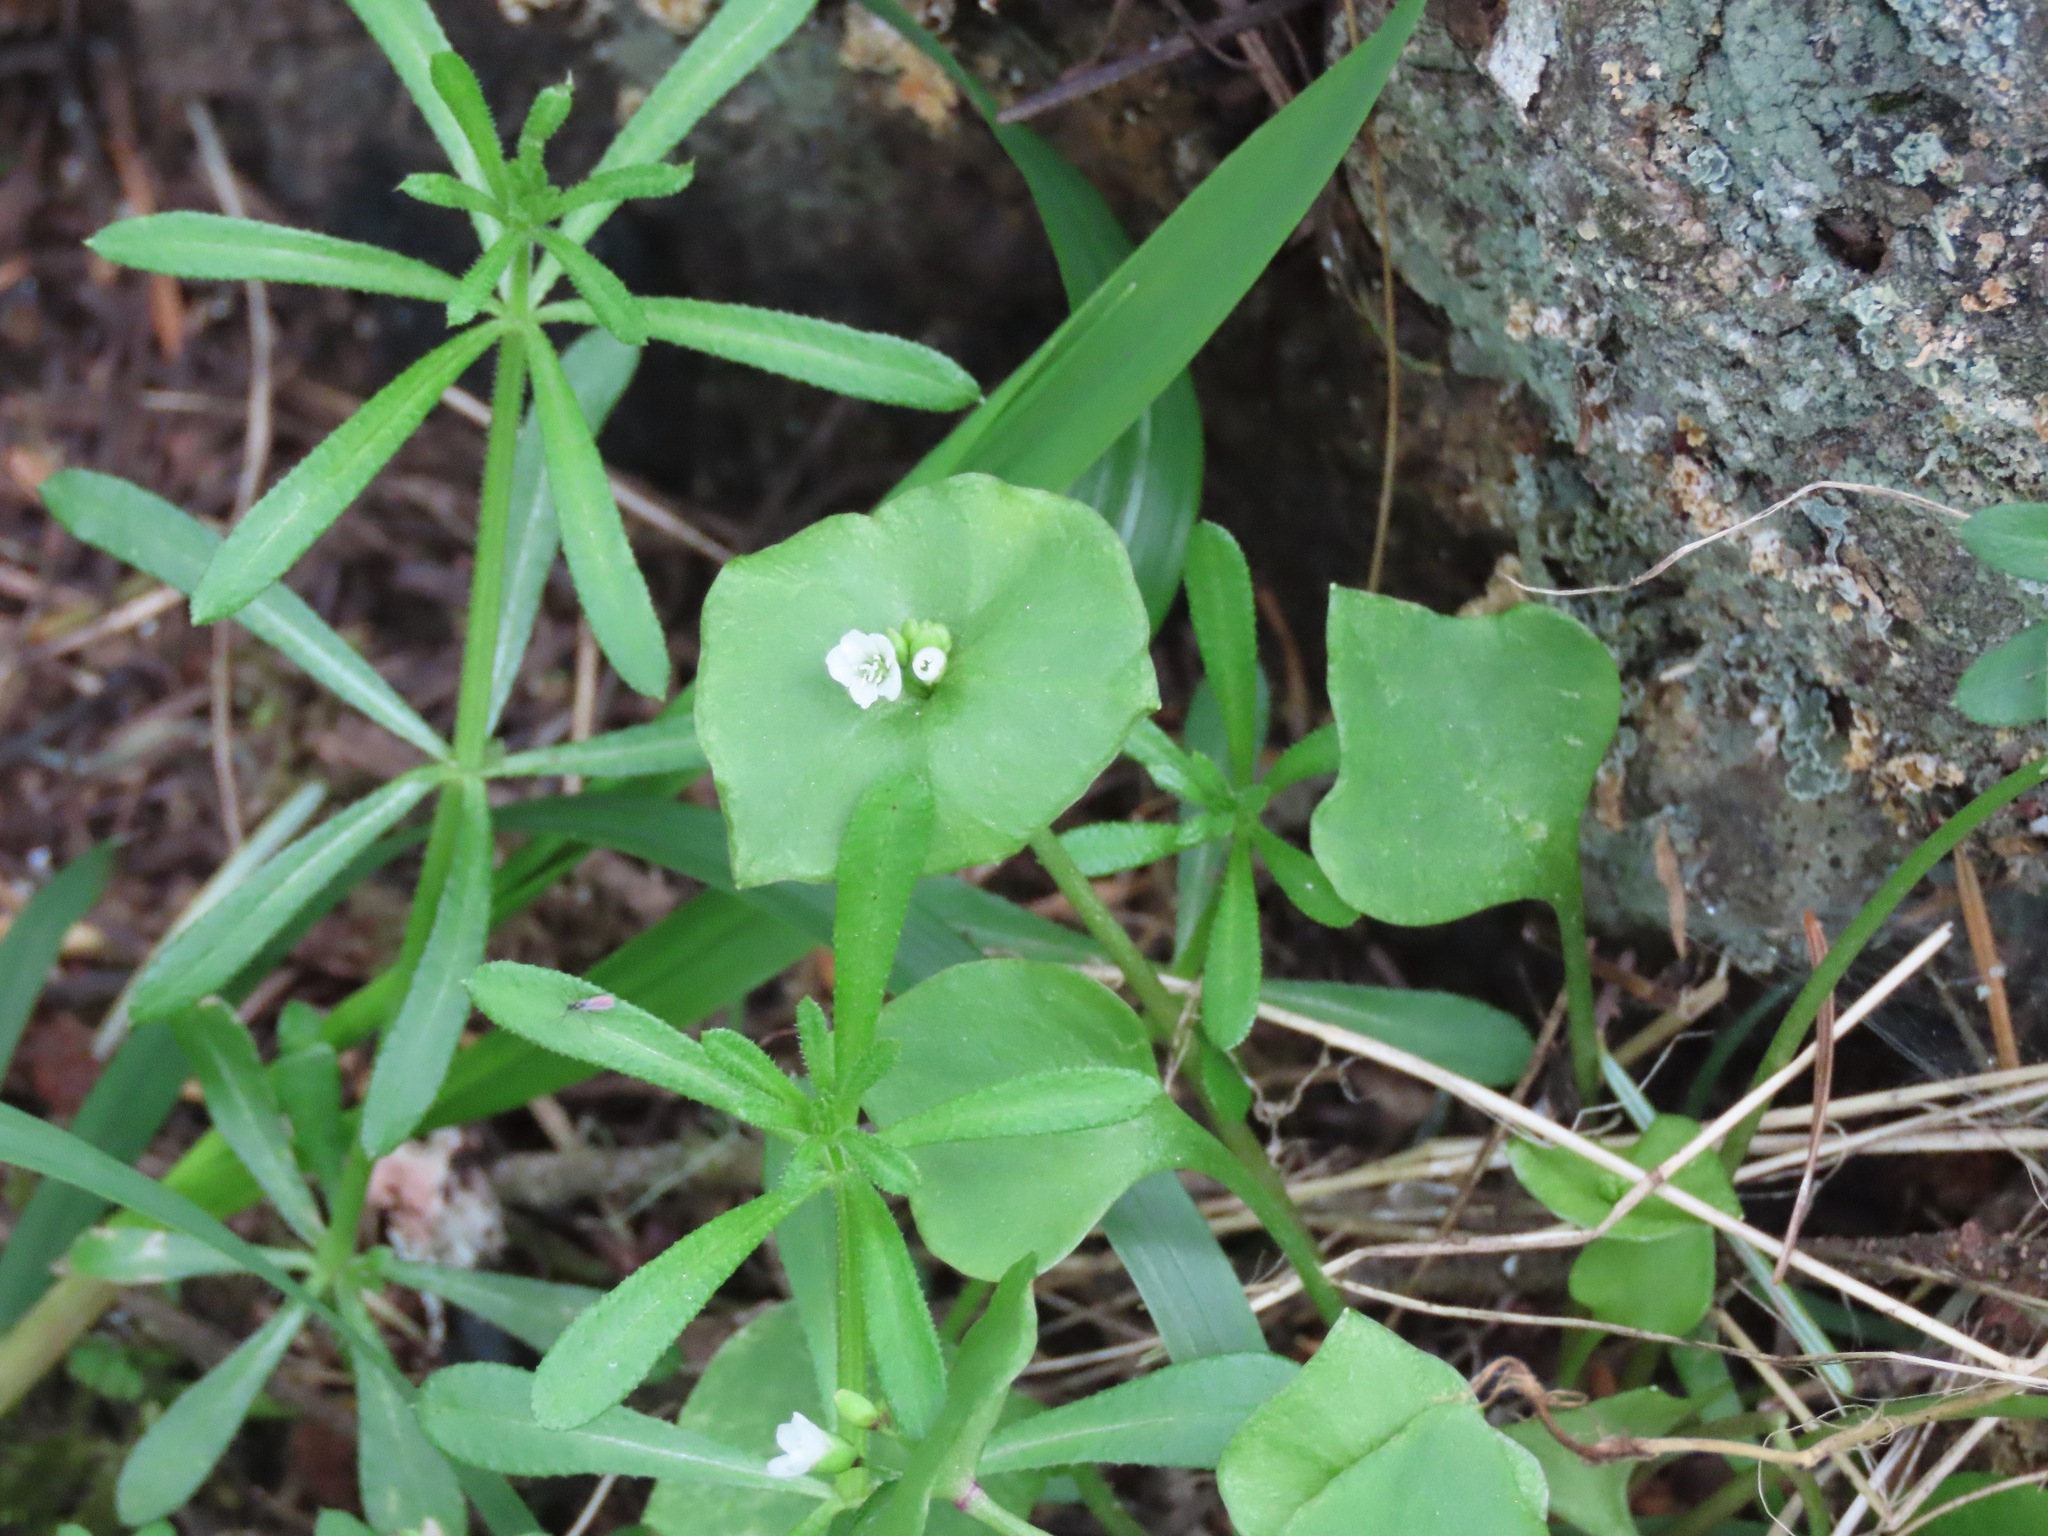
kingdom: Plantae
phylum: Tracheophyta
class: Magnoliopsida
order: Caryophyllales
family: Montiaceae
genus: Claytonia
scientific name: Claytonia perfoliata
